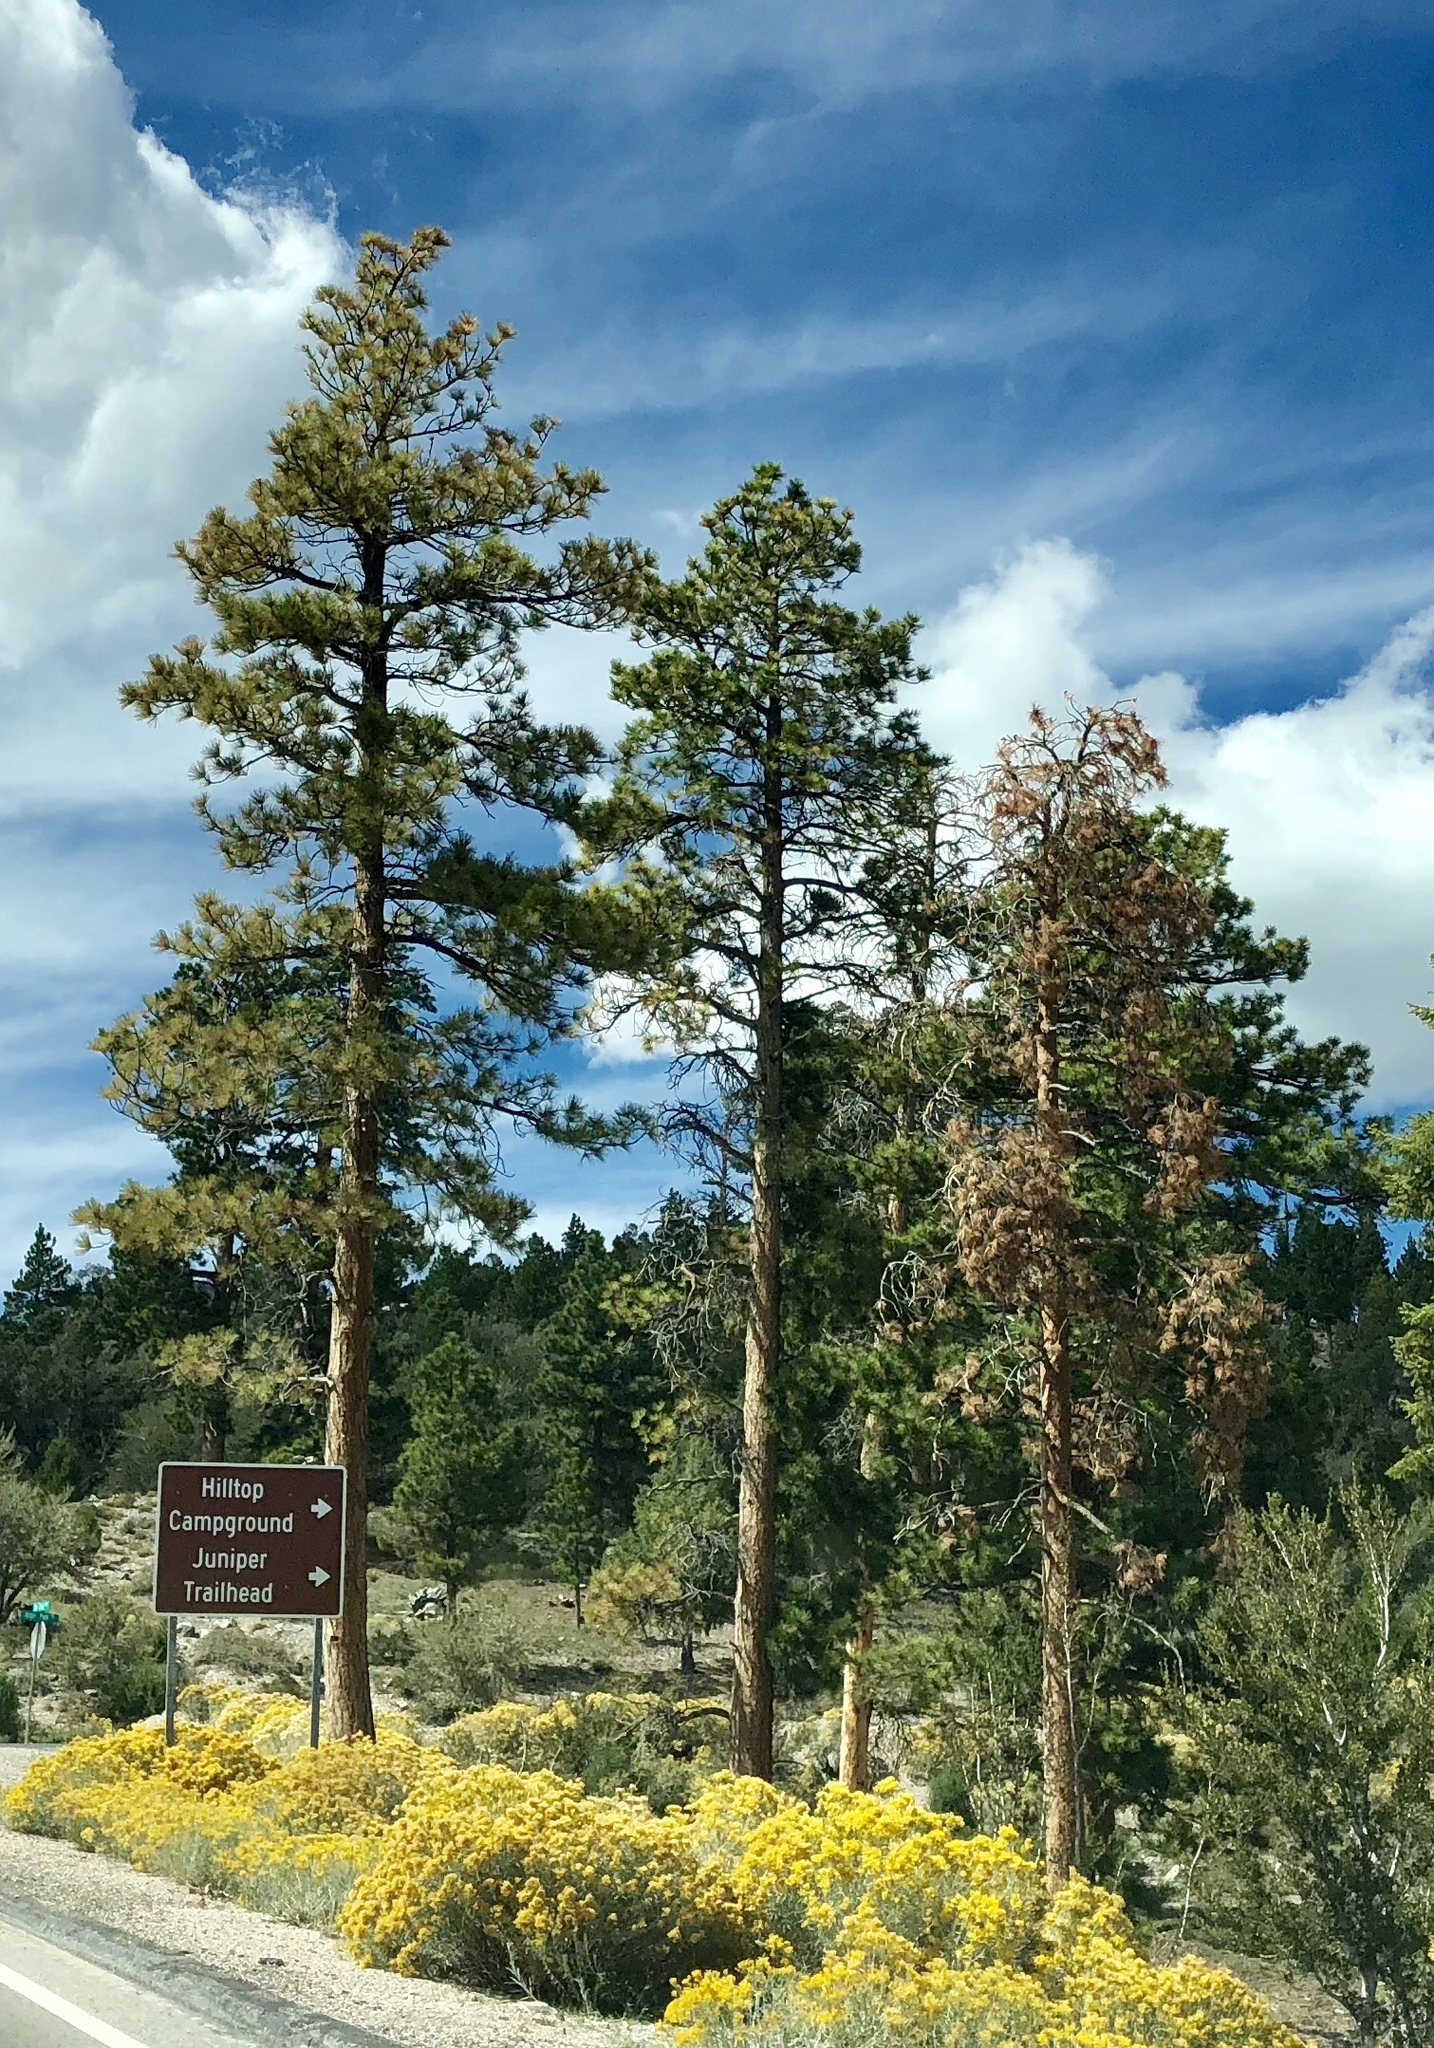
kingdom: Plantae
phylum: Tracheophyta
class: Pinopsida
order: Pinales
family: Pinaceae
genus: Pinus
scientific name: Pinus ponderosa
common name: Western yellow-pine
